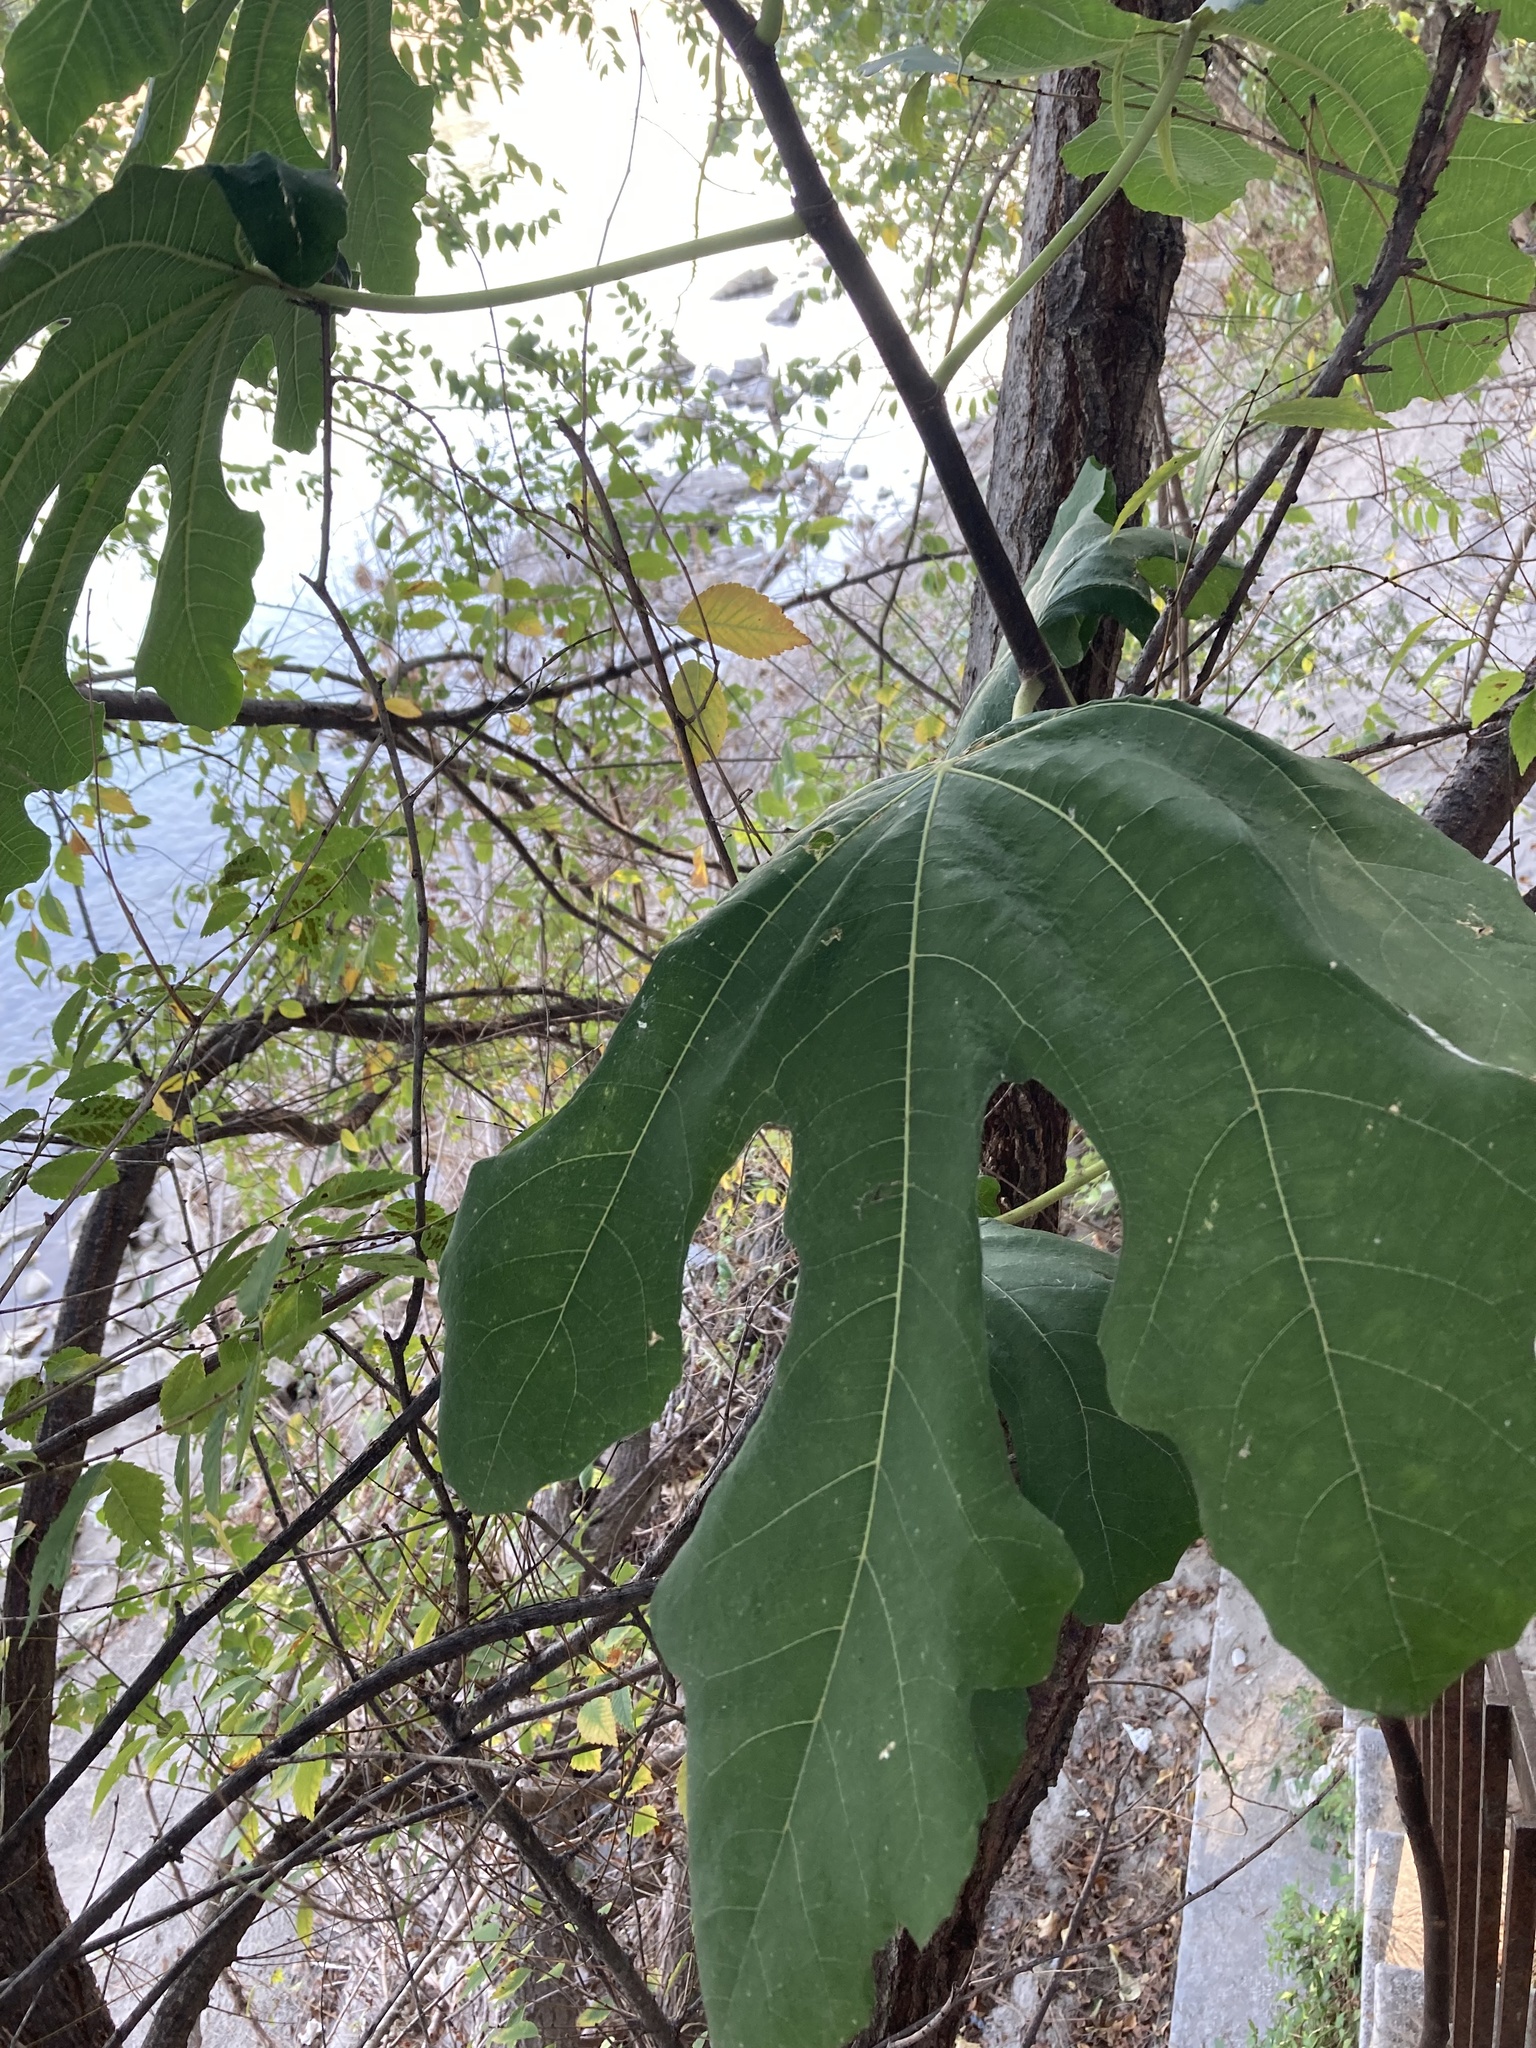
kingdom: Plantae
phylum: Tracheophyta
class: Magnoliopsida
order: Rosales
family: Moraceae
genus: Ficus
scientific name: Ficus carica
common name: Fig
